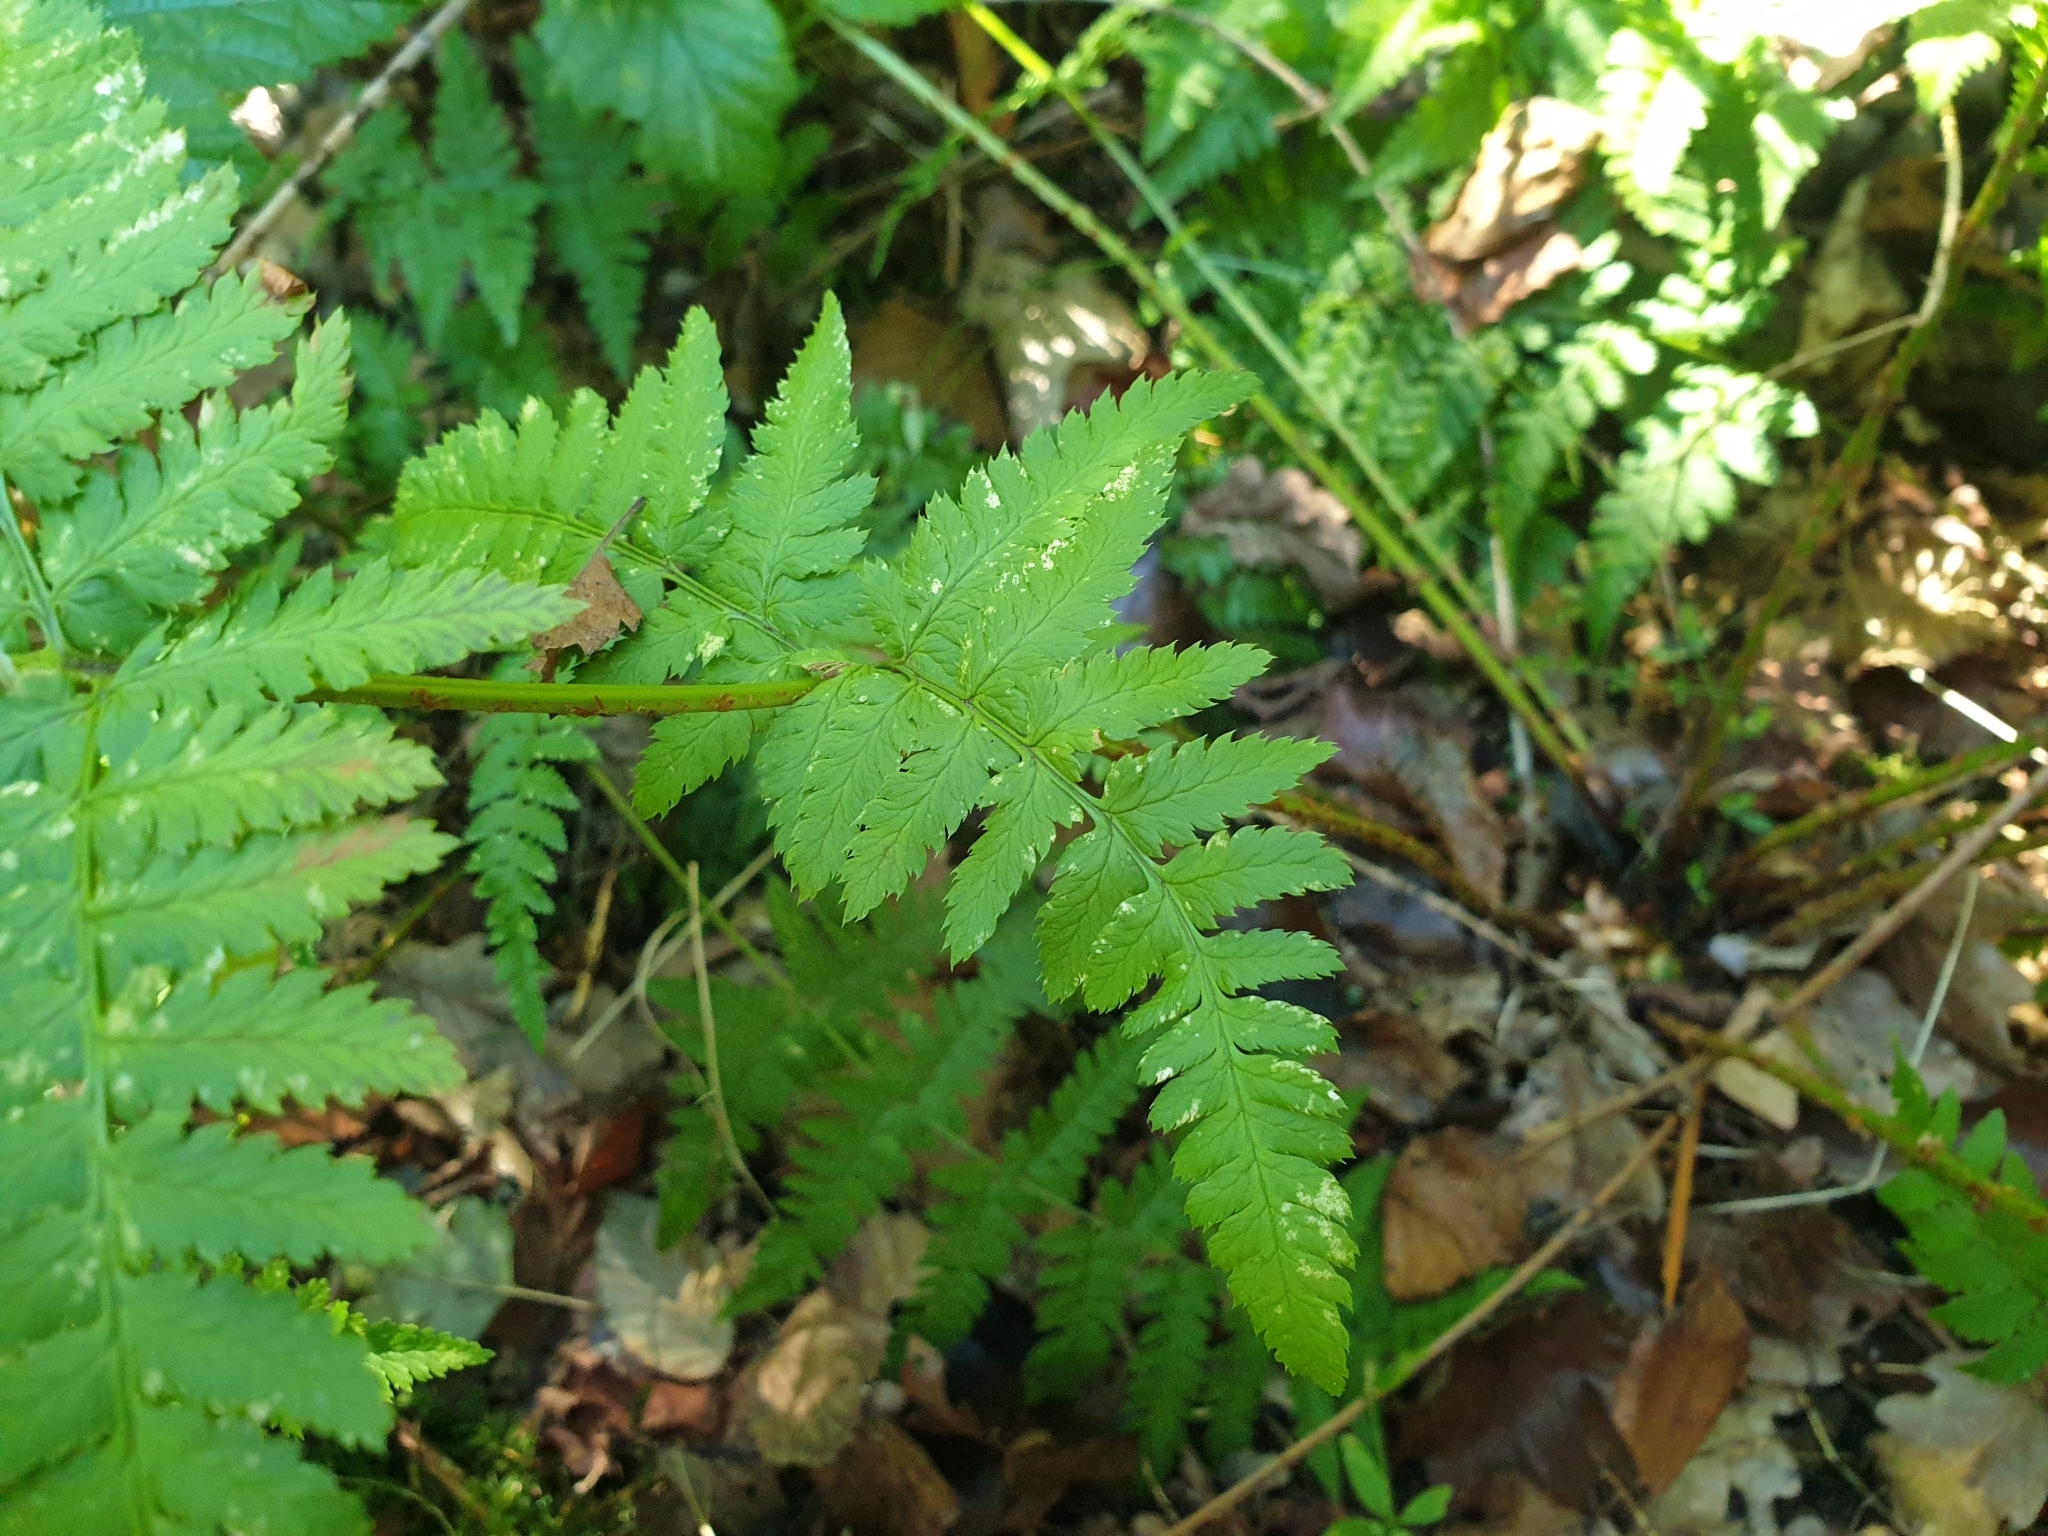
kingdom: Plantae
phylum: Tracheophyta
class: Polypodiopsida
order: Polypodiales
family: Dryopteridaceae
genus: Dryopteris
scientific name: Dryopteris carthusiana
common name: Narrow buckler-fern
